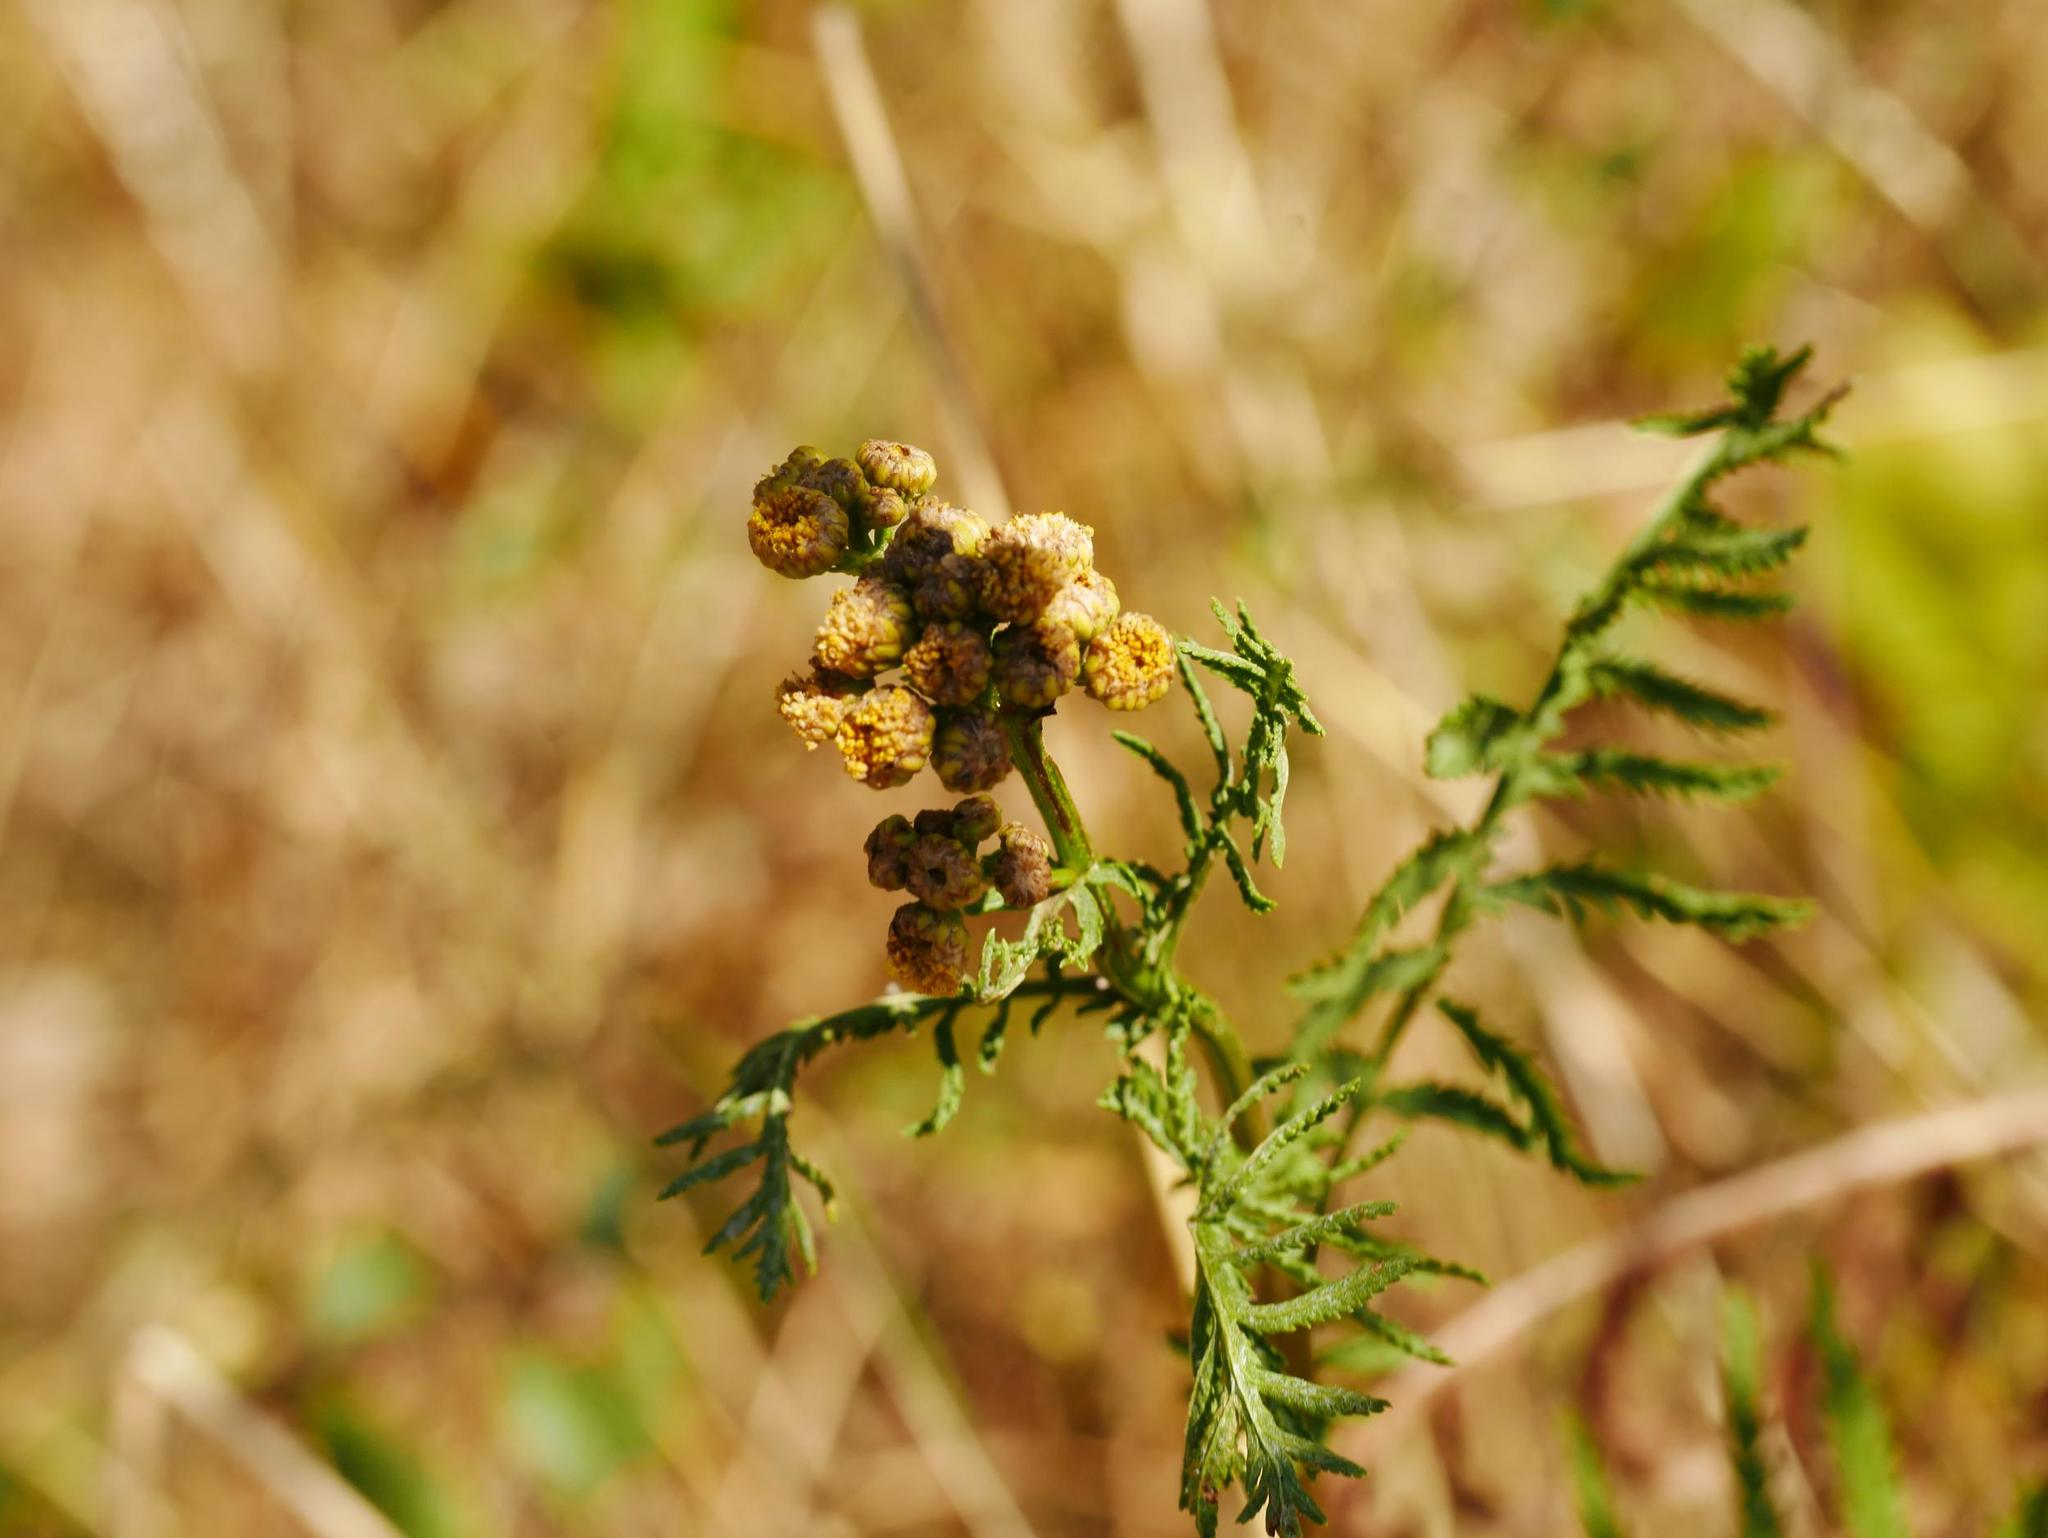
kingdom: Plantae
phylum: Tracheophyta
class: Magnoliopsida
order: Asterales
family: Asteraceae
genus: Tanacetum
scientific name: Tanacetum vulgare
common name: Common tansy
